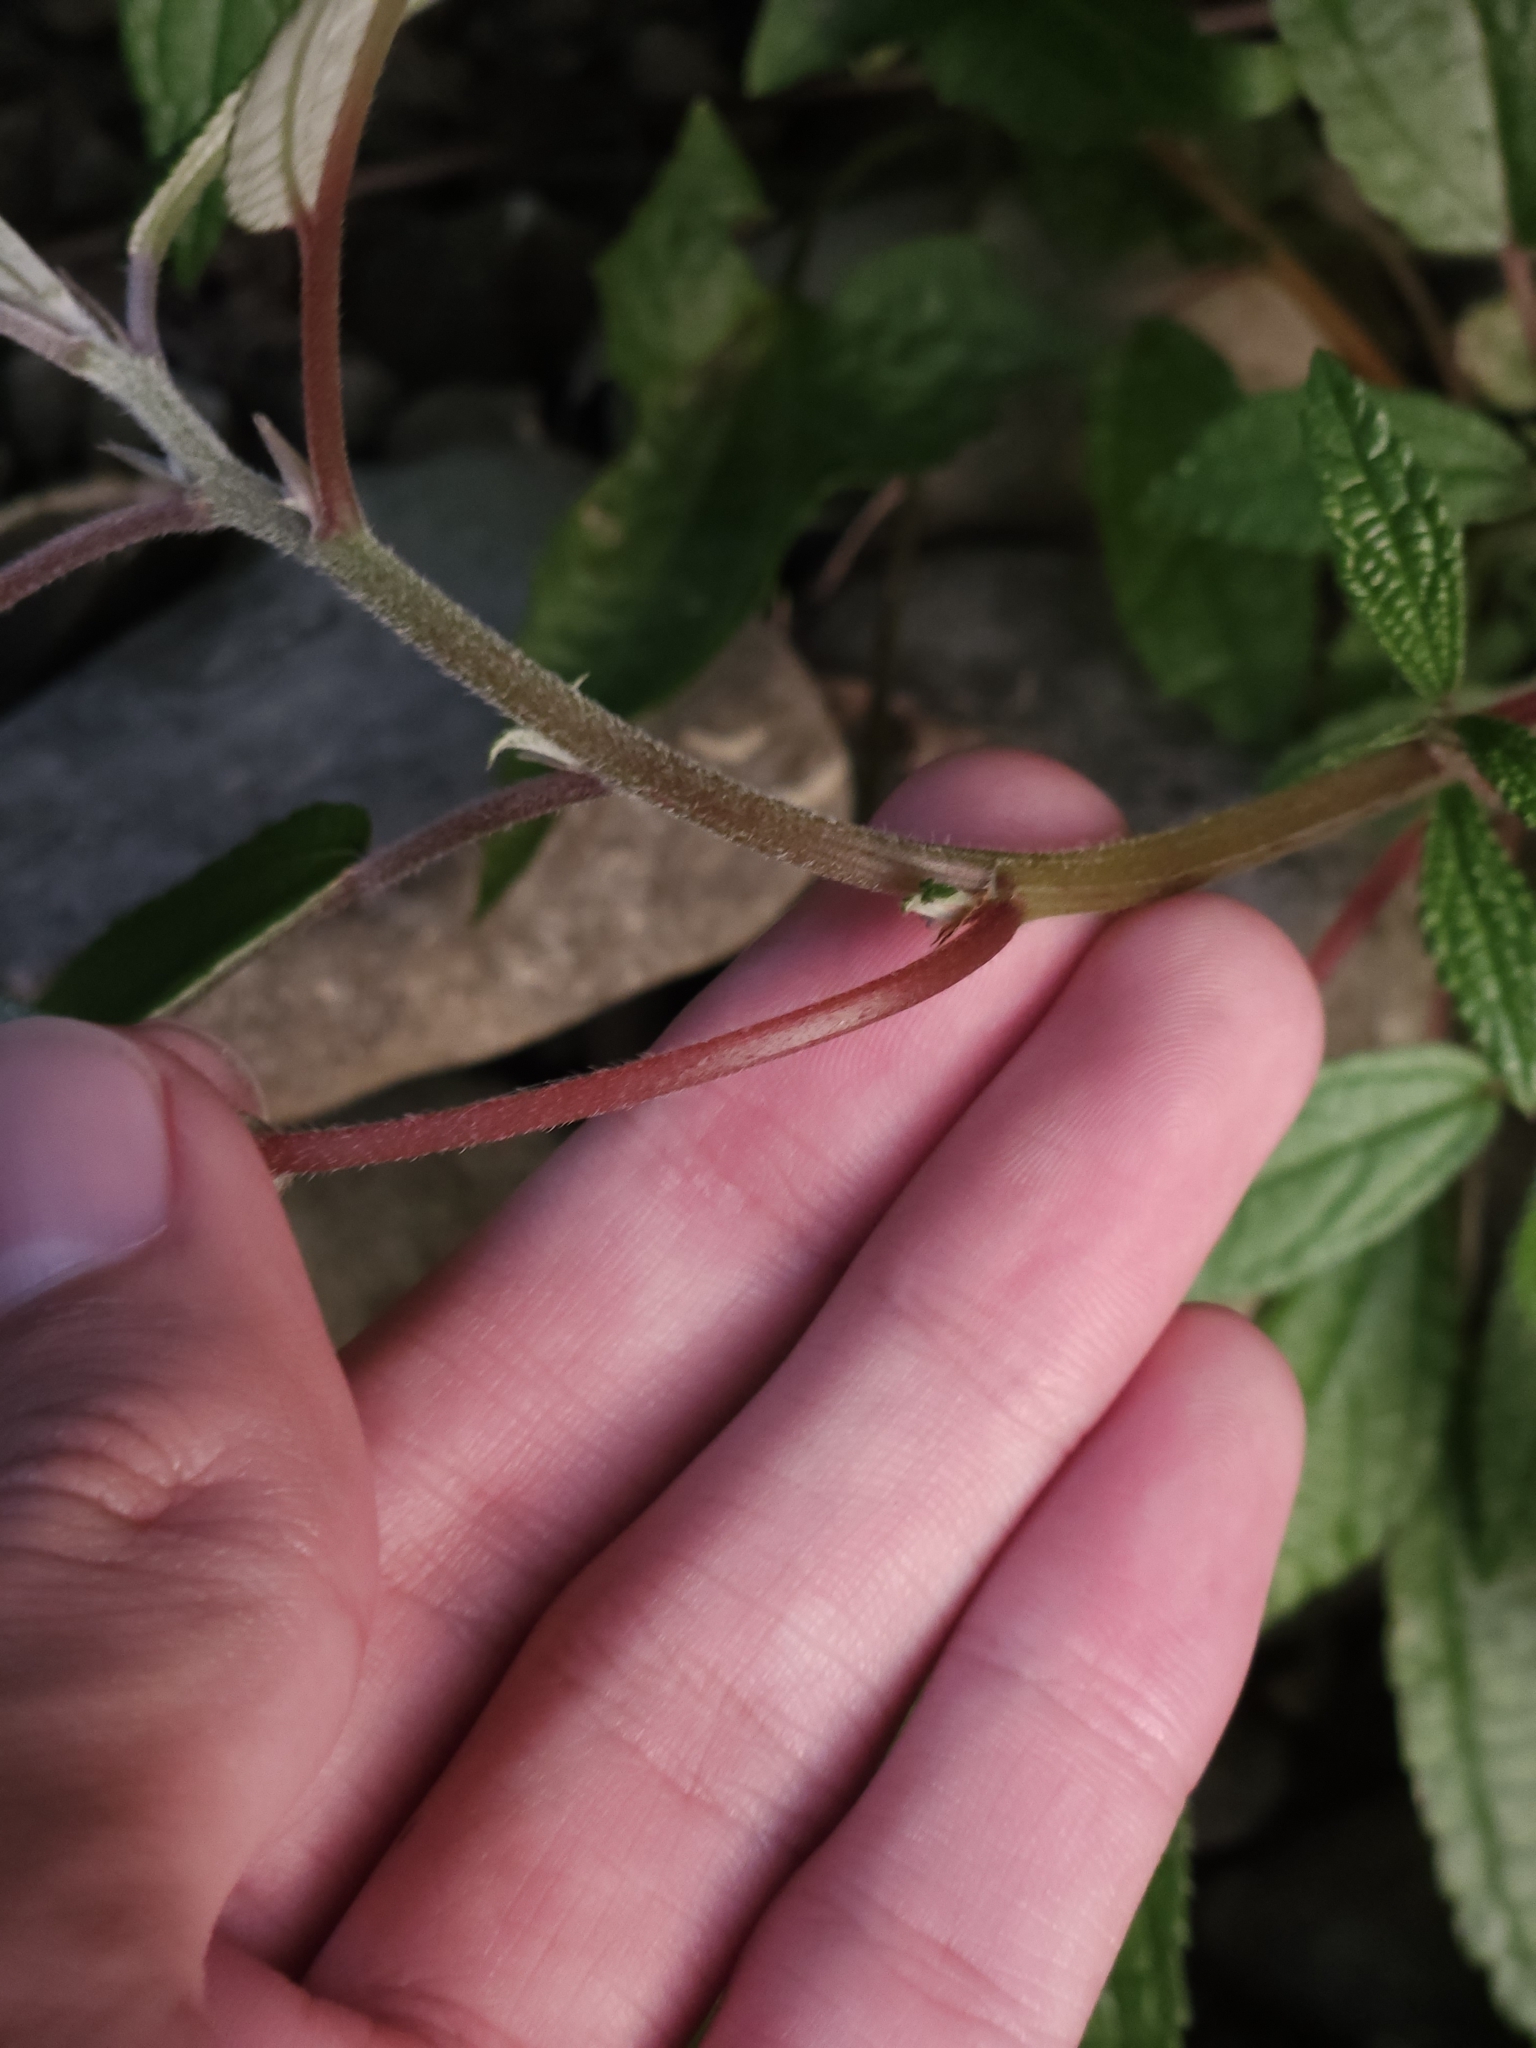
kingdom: Plantae
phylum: Tracheophyta
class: Magnoliopsida
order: Rosales
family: Urticaceae
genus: Debregeasia
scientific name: Debregeasia orientalis
